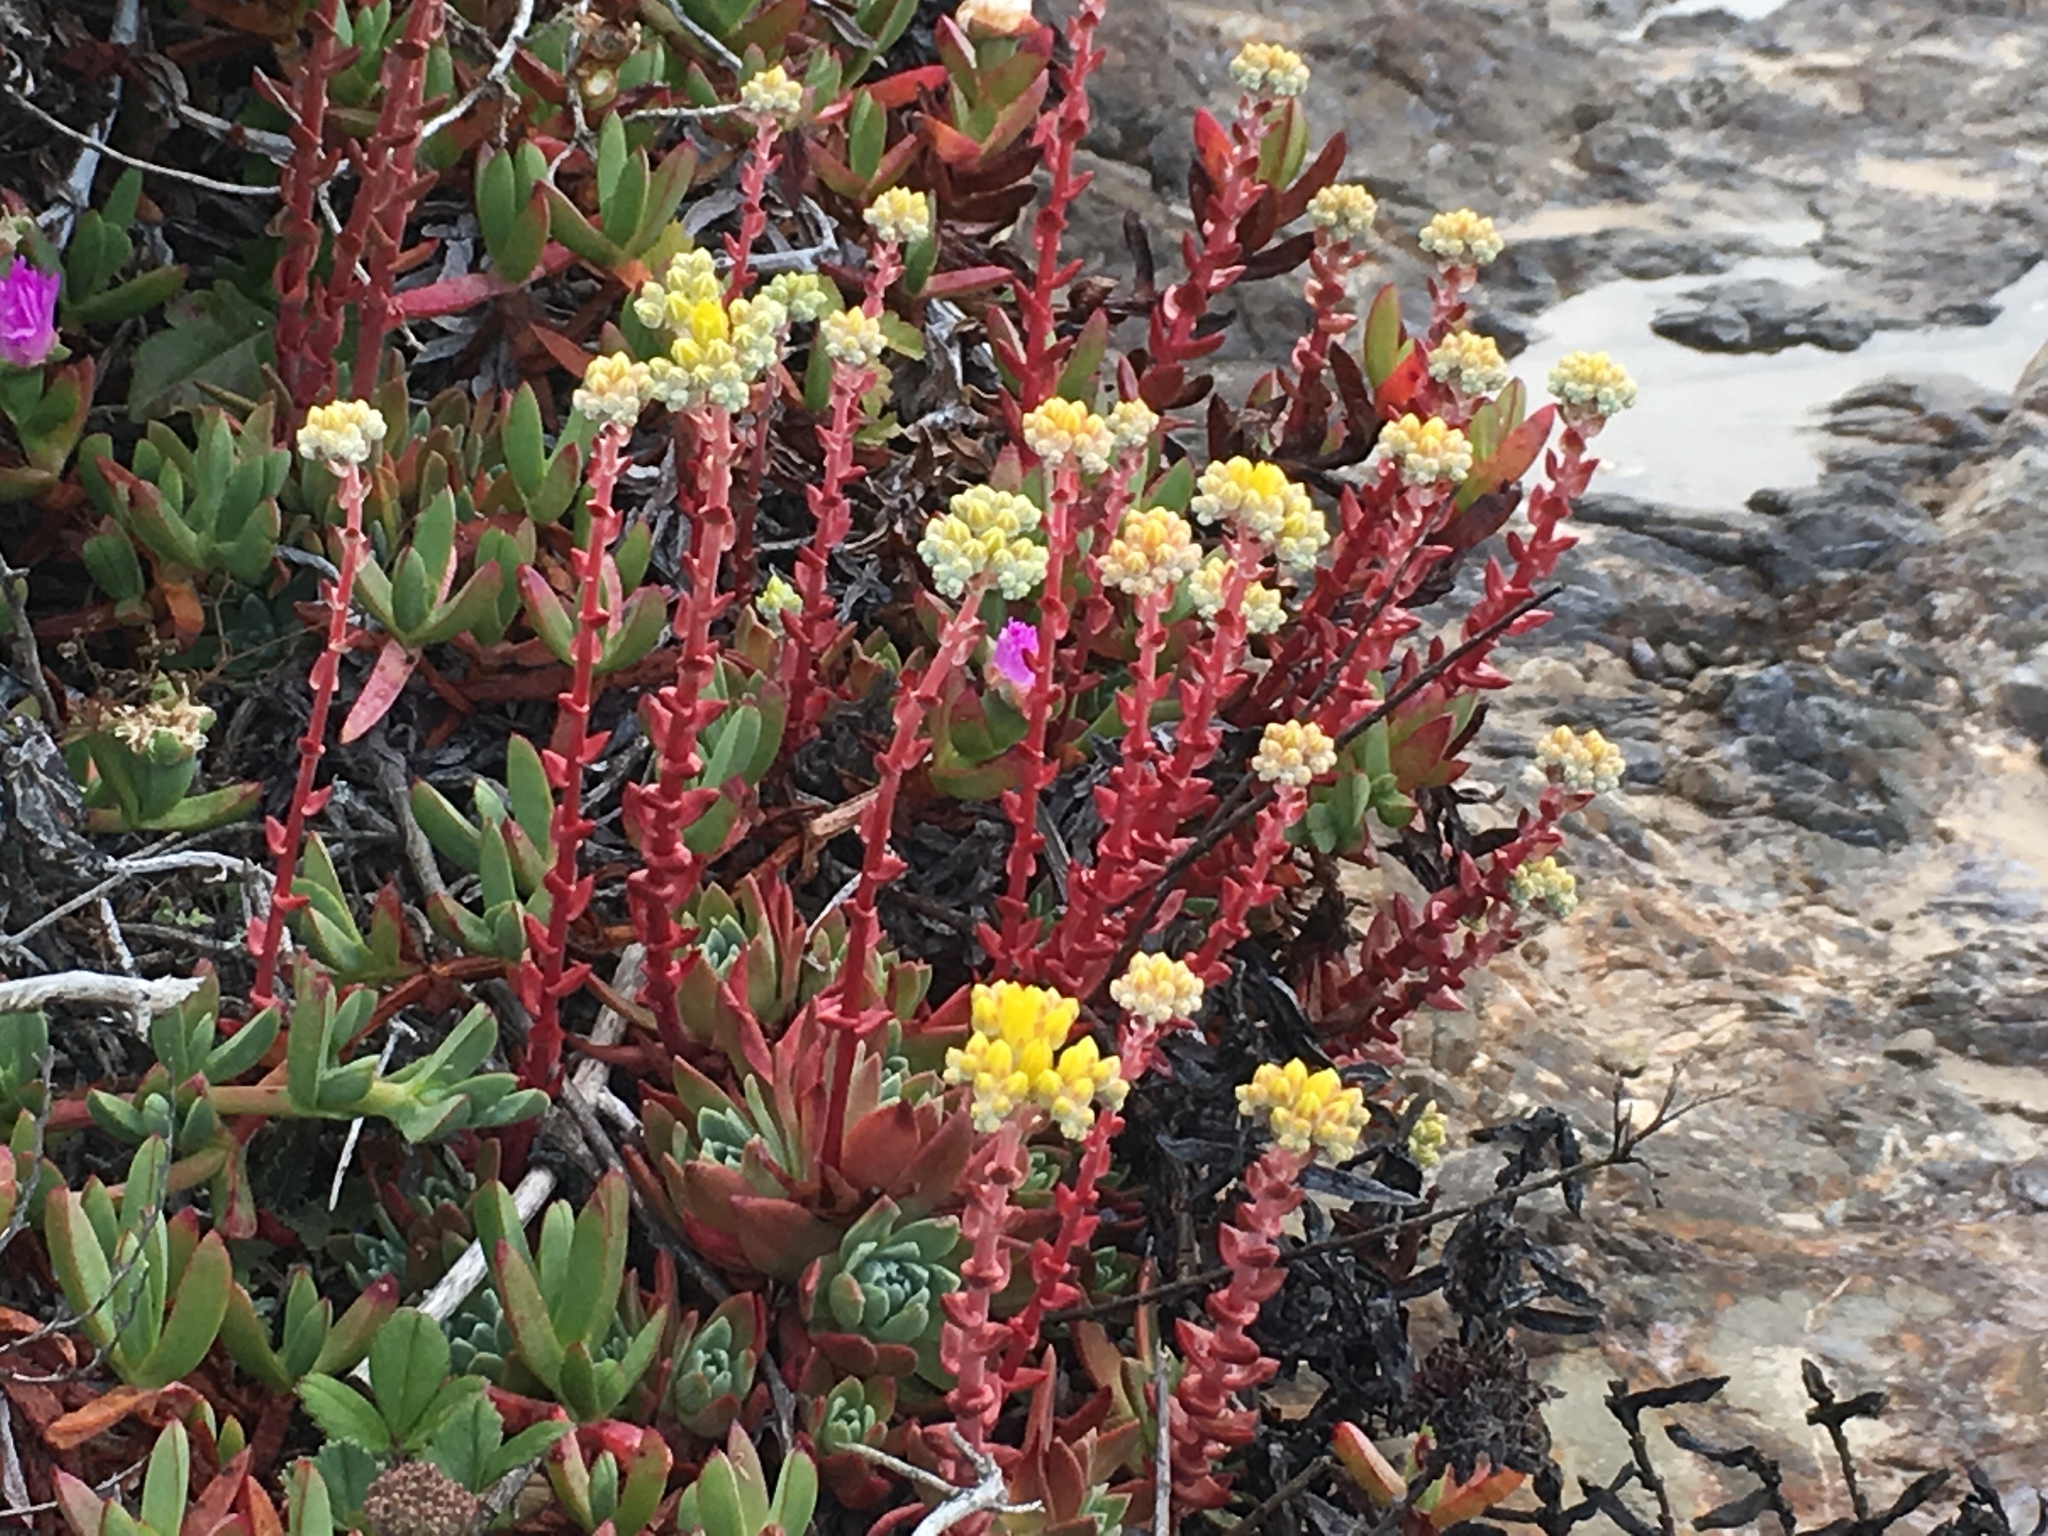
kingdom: Plantae
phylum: Tracheophyta
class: Magnoliopsida
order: Saxifragales
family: Crassulaceae
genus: Dudleya
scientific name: Dudleya farinosa
